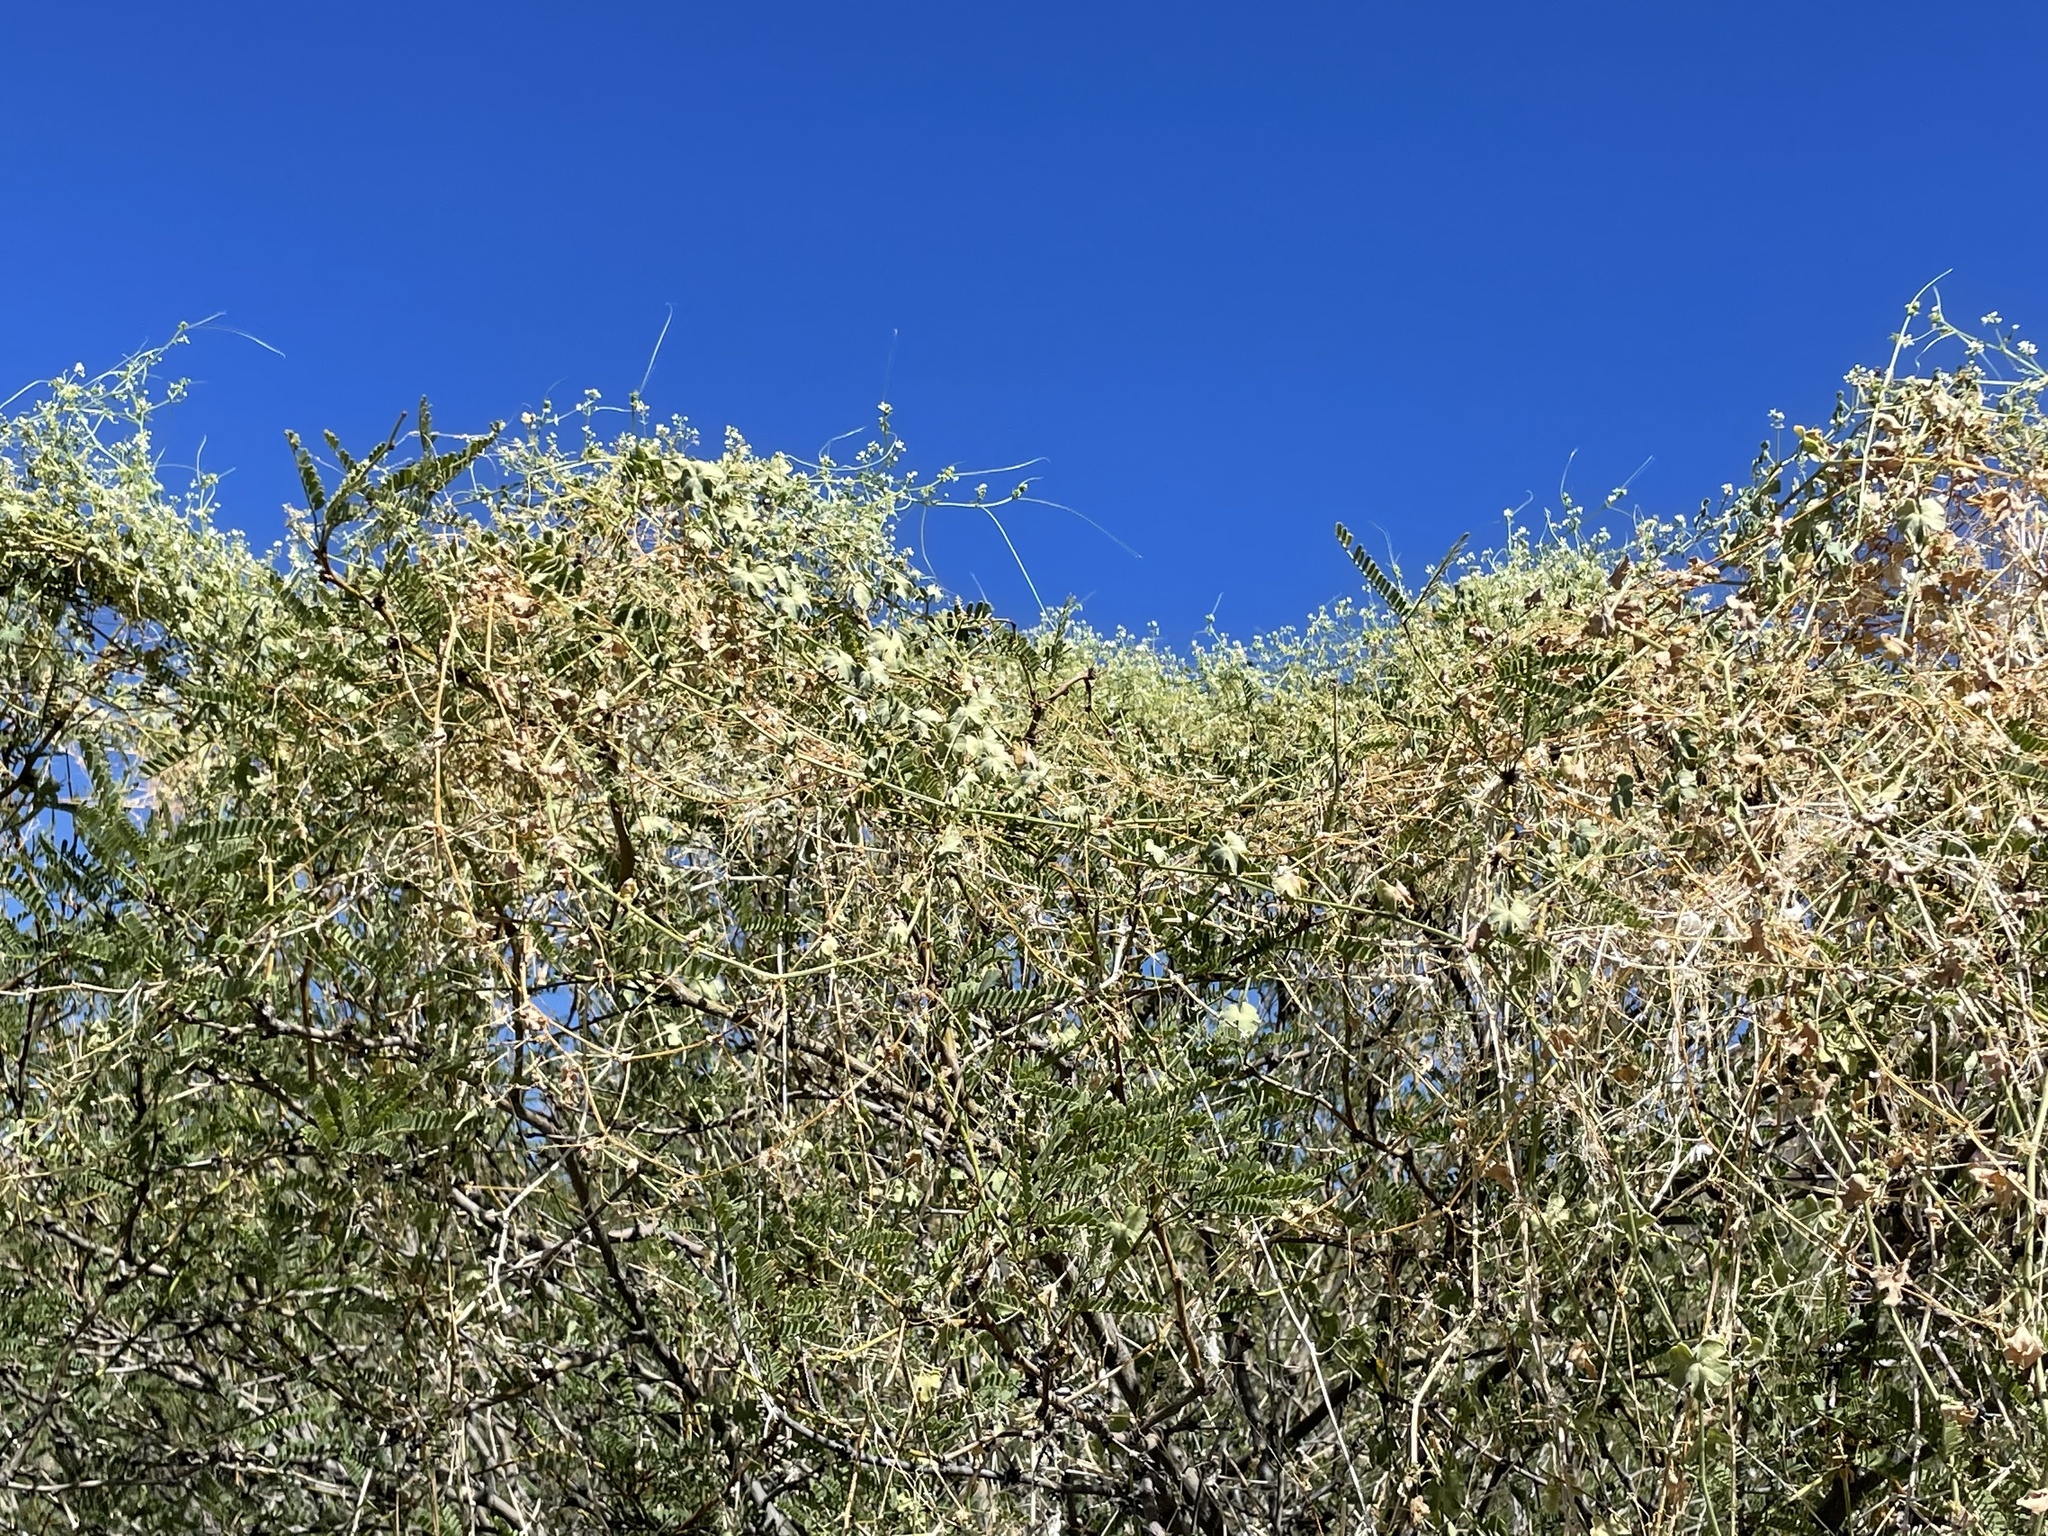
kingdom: Plantae
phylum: Tracheophyta
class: Magnoliopsida
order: Cucurbitales
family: Cucurbitaceae
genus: Echinopepon
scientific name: Echinopepon insularis
